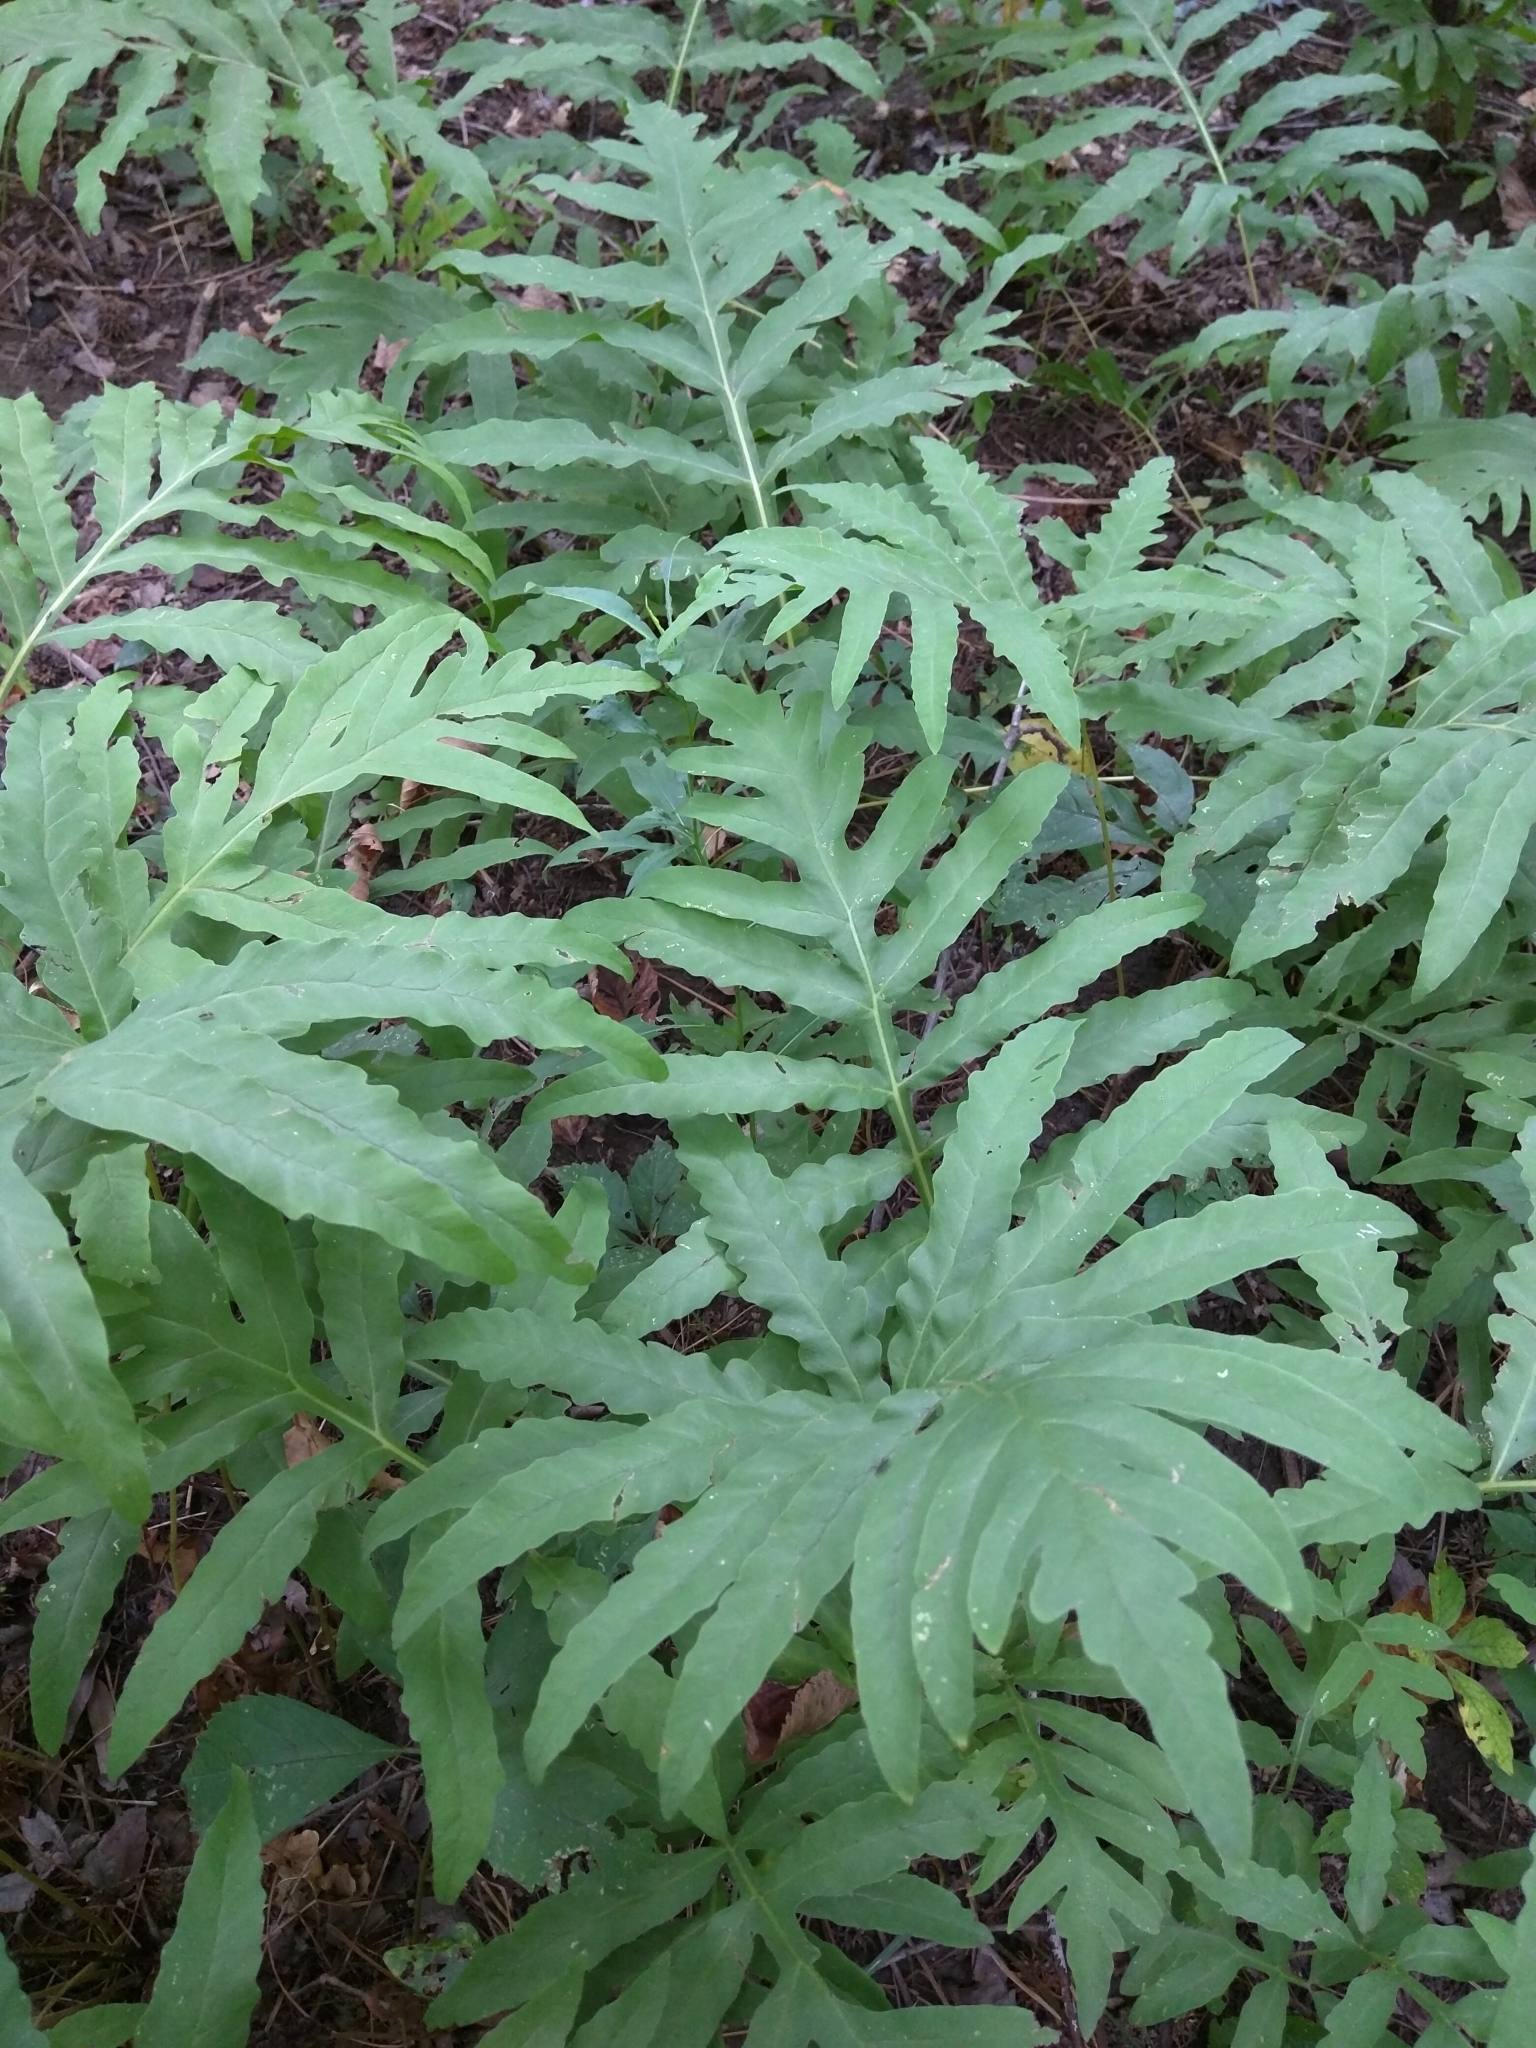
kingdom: Plantae
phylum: Tracheophyta
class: Polypodiopsida
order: Polypodiales
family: Onocleaceae
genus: Onoclea
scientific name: Onoclea sensibilis
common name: Sensitive fern
